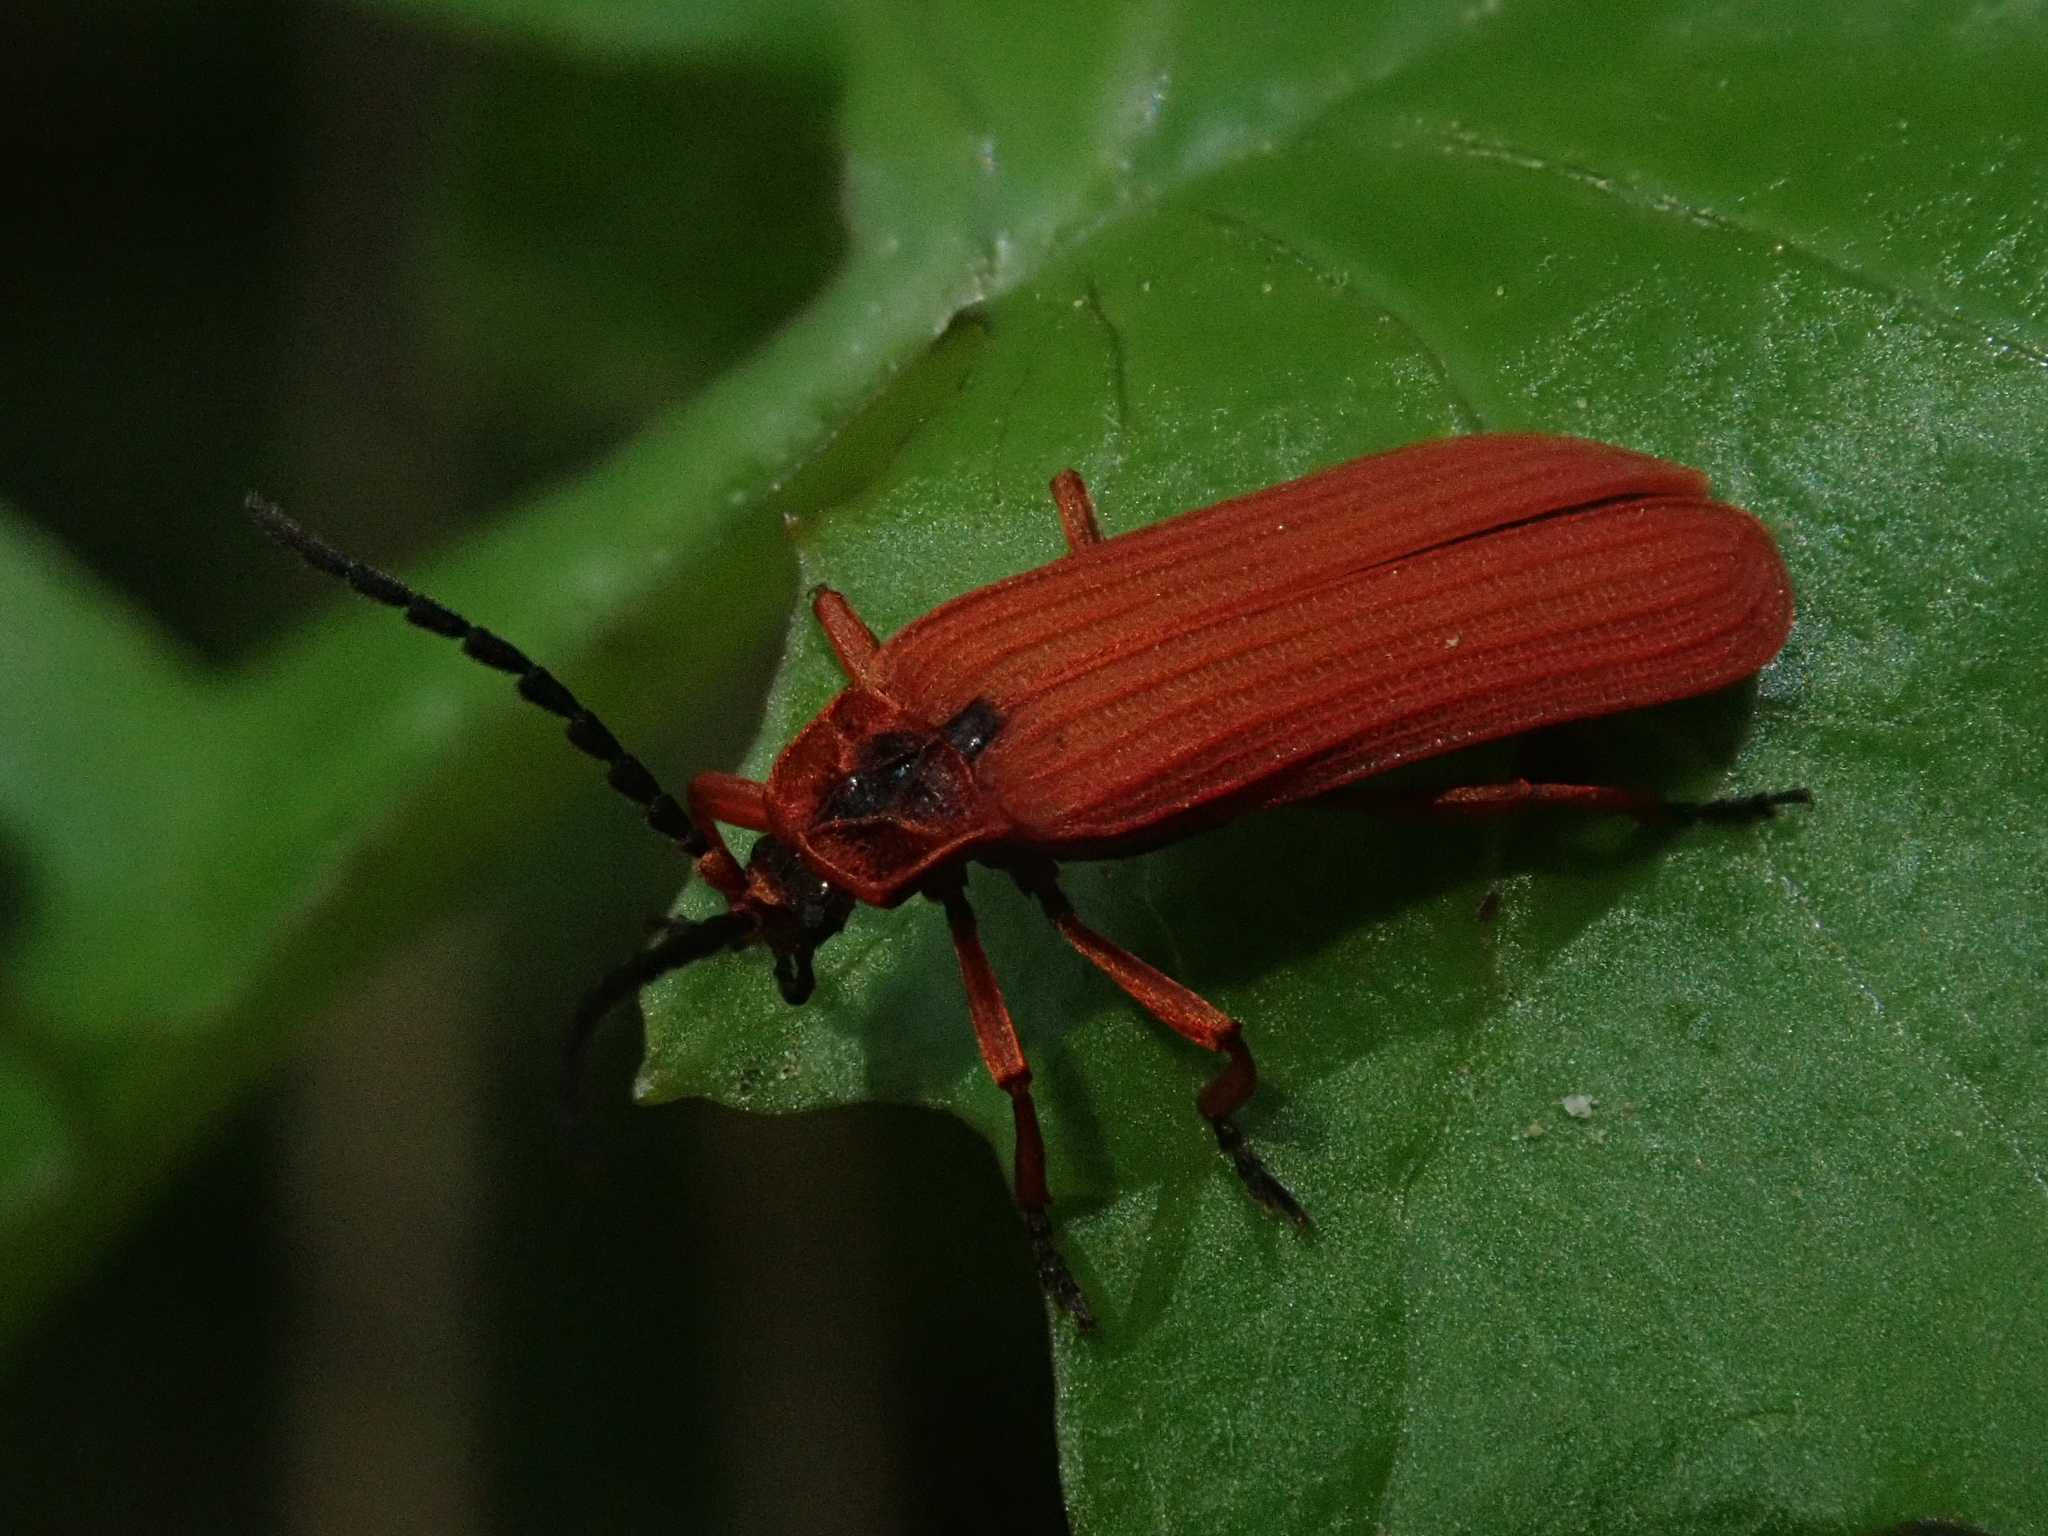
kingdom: Animalia
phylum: Arthropoda
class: Insecta
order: Coleoptera
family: Lycidae
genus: Dictyoptera
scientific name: Dictyoptera simplicipes
